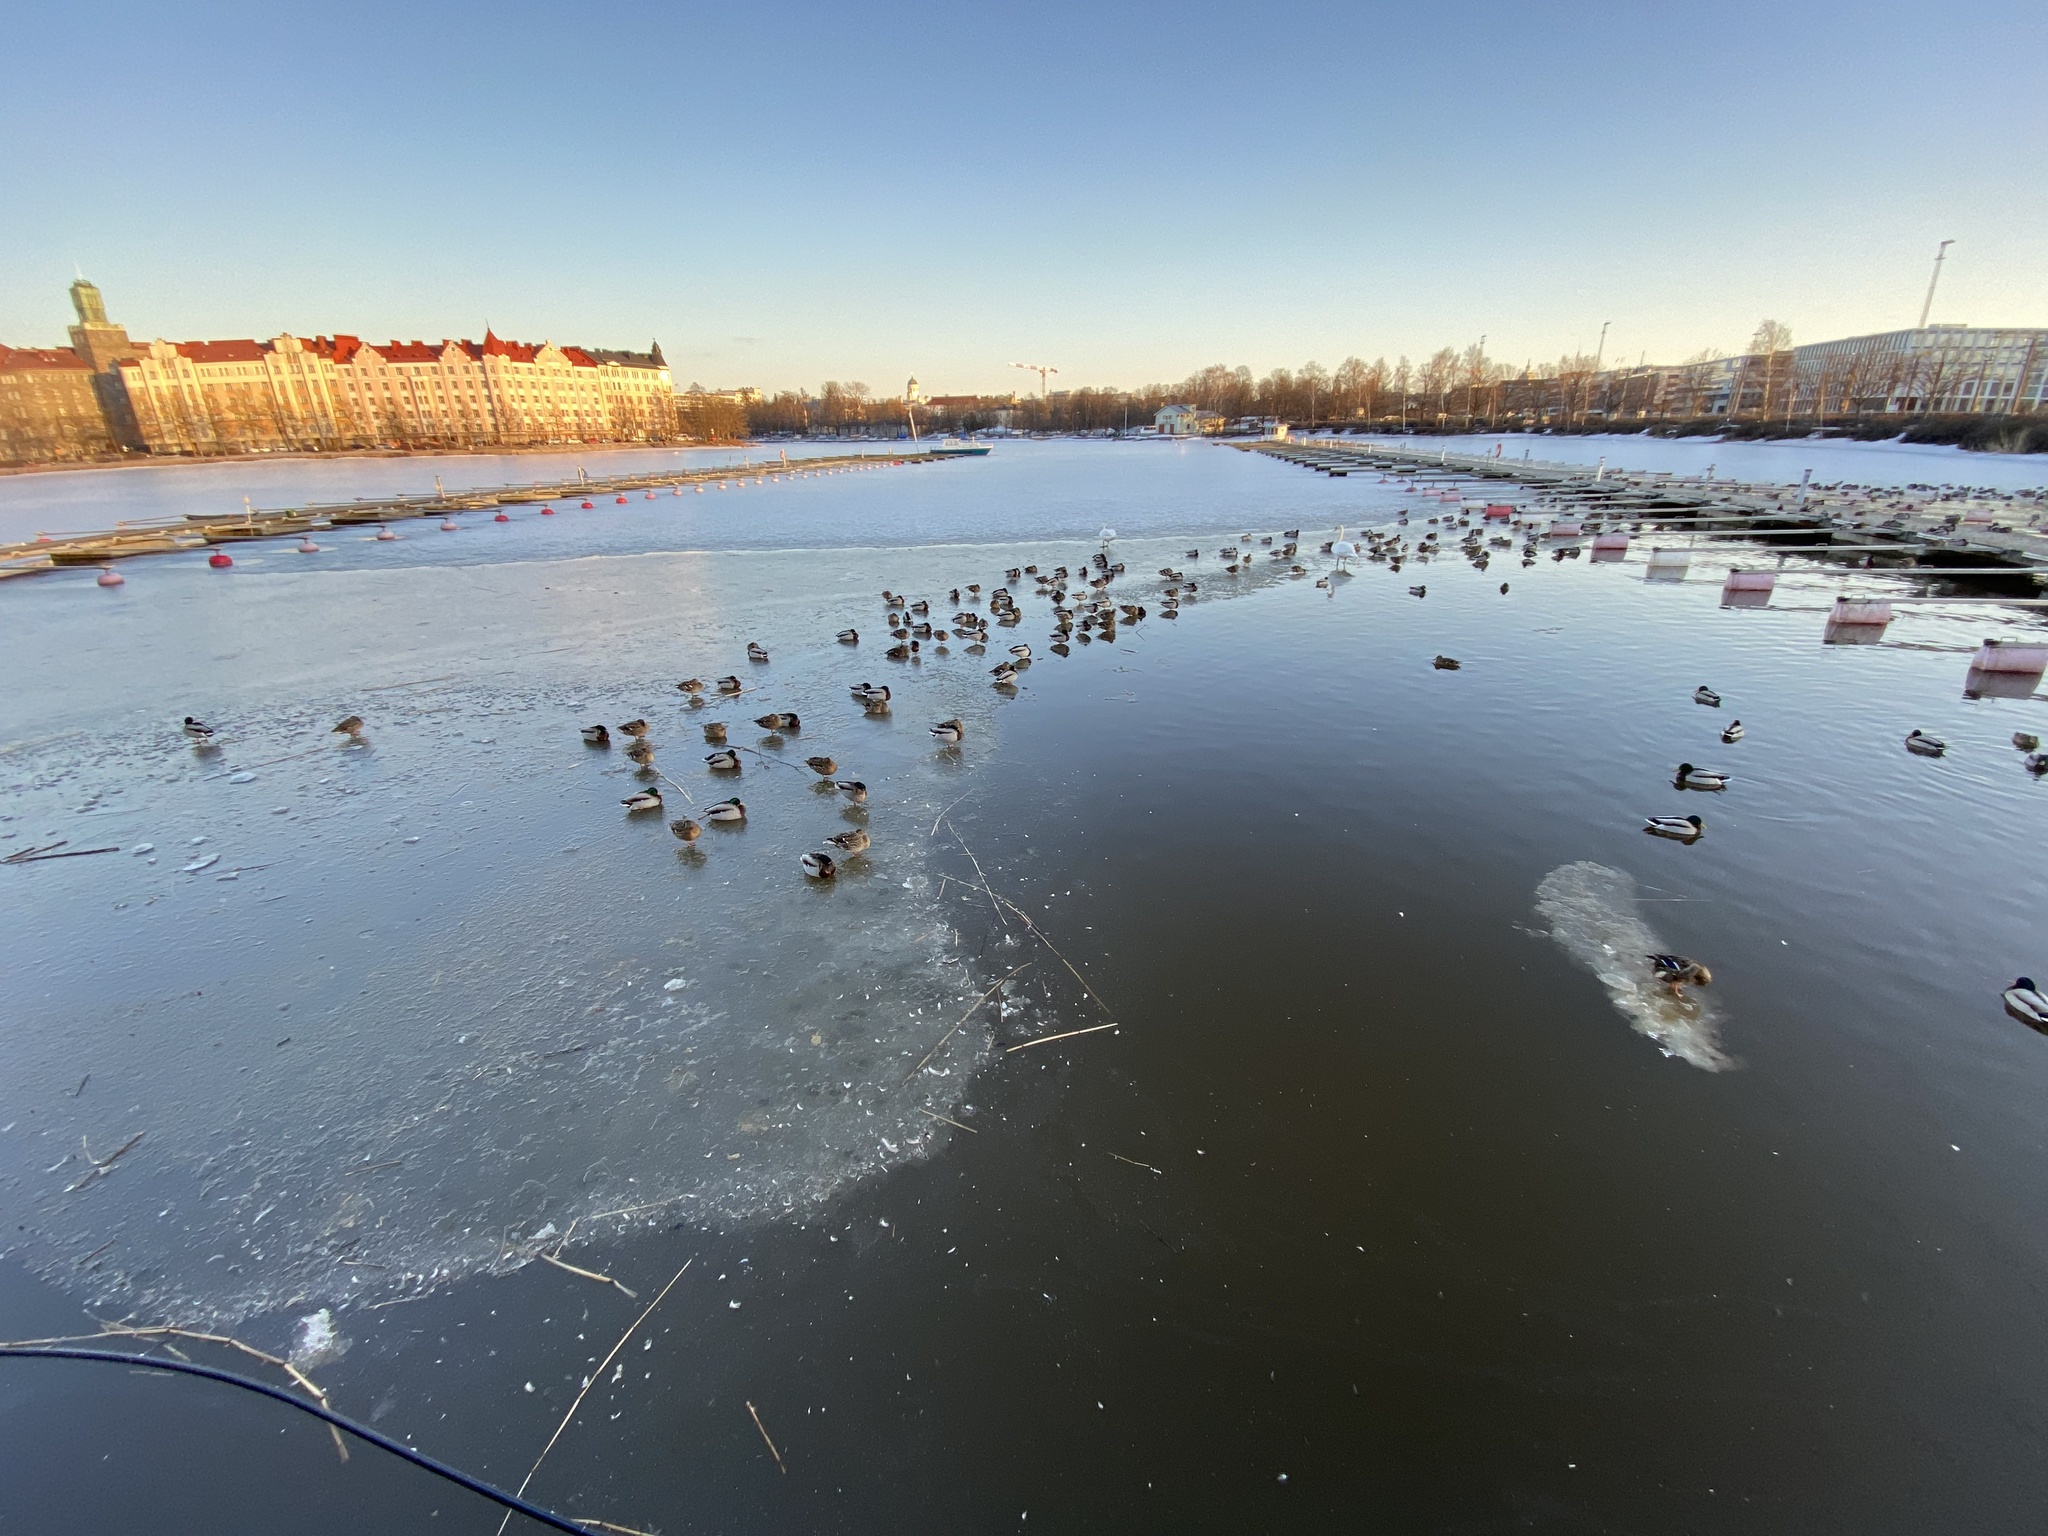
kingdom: Animalia
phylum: Chordata
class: Aves
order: Anseriformes
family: Anatidae
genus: Anas
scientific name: Anas platyrhynchos
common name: Mallard
